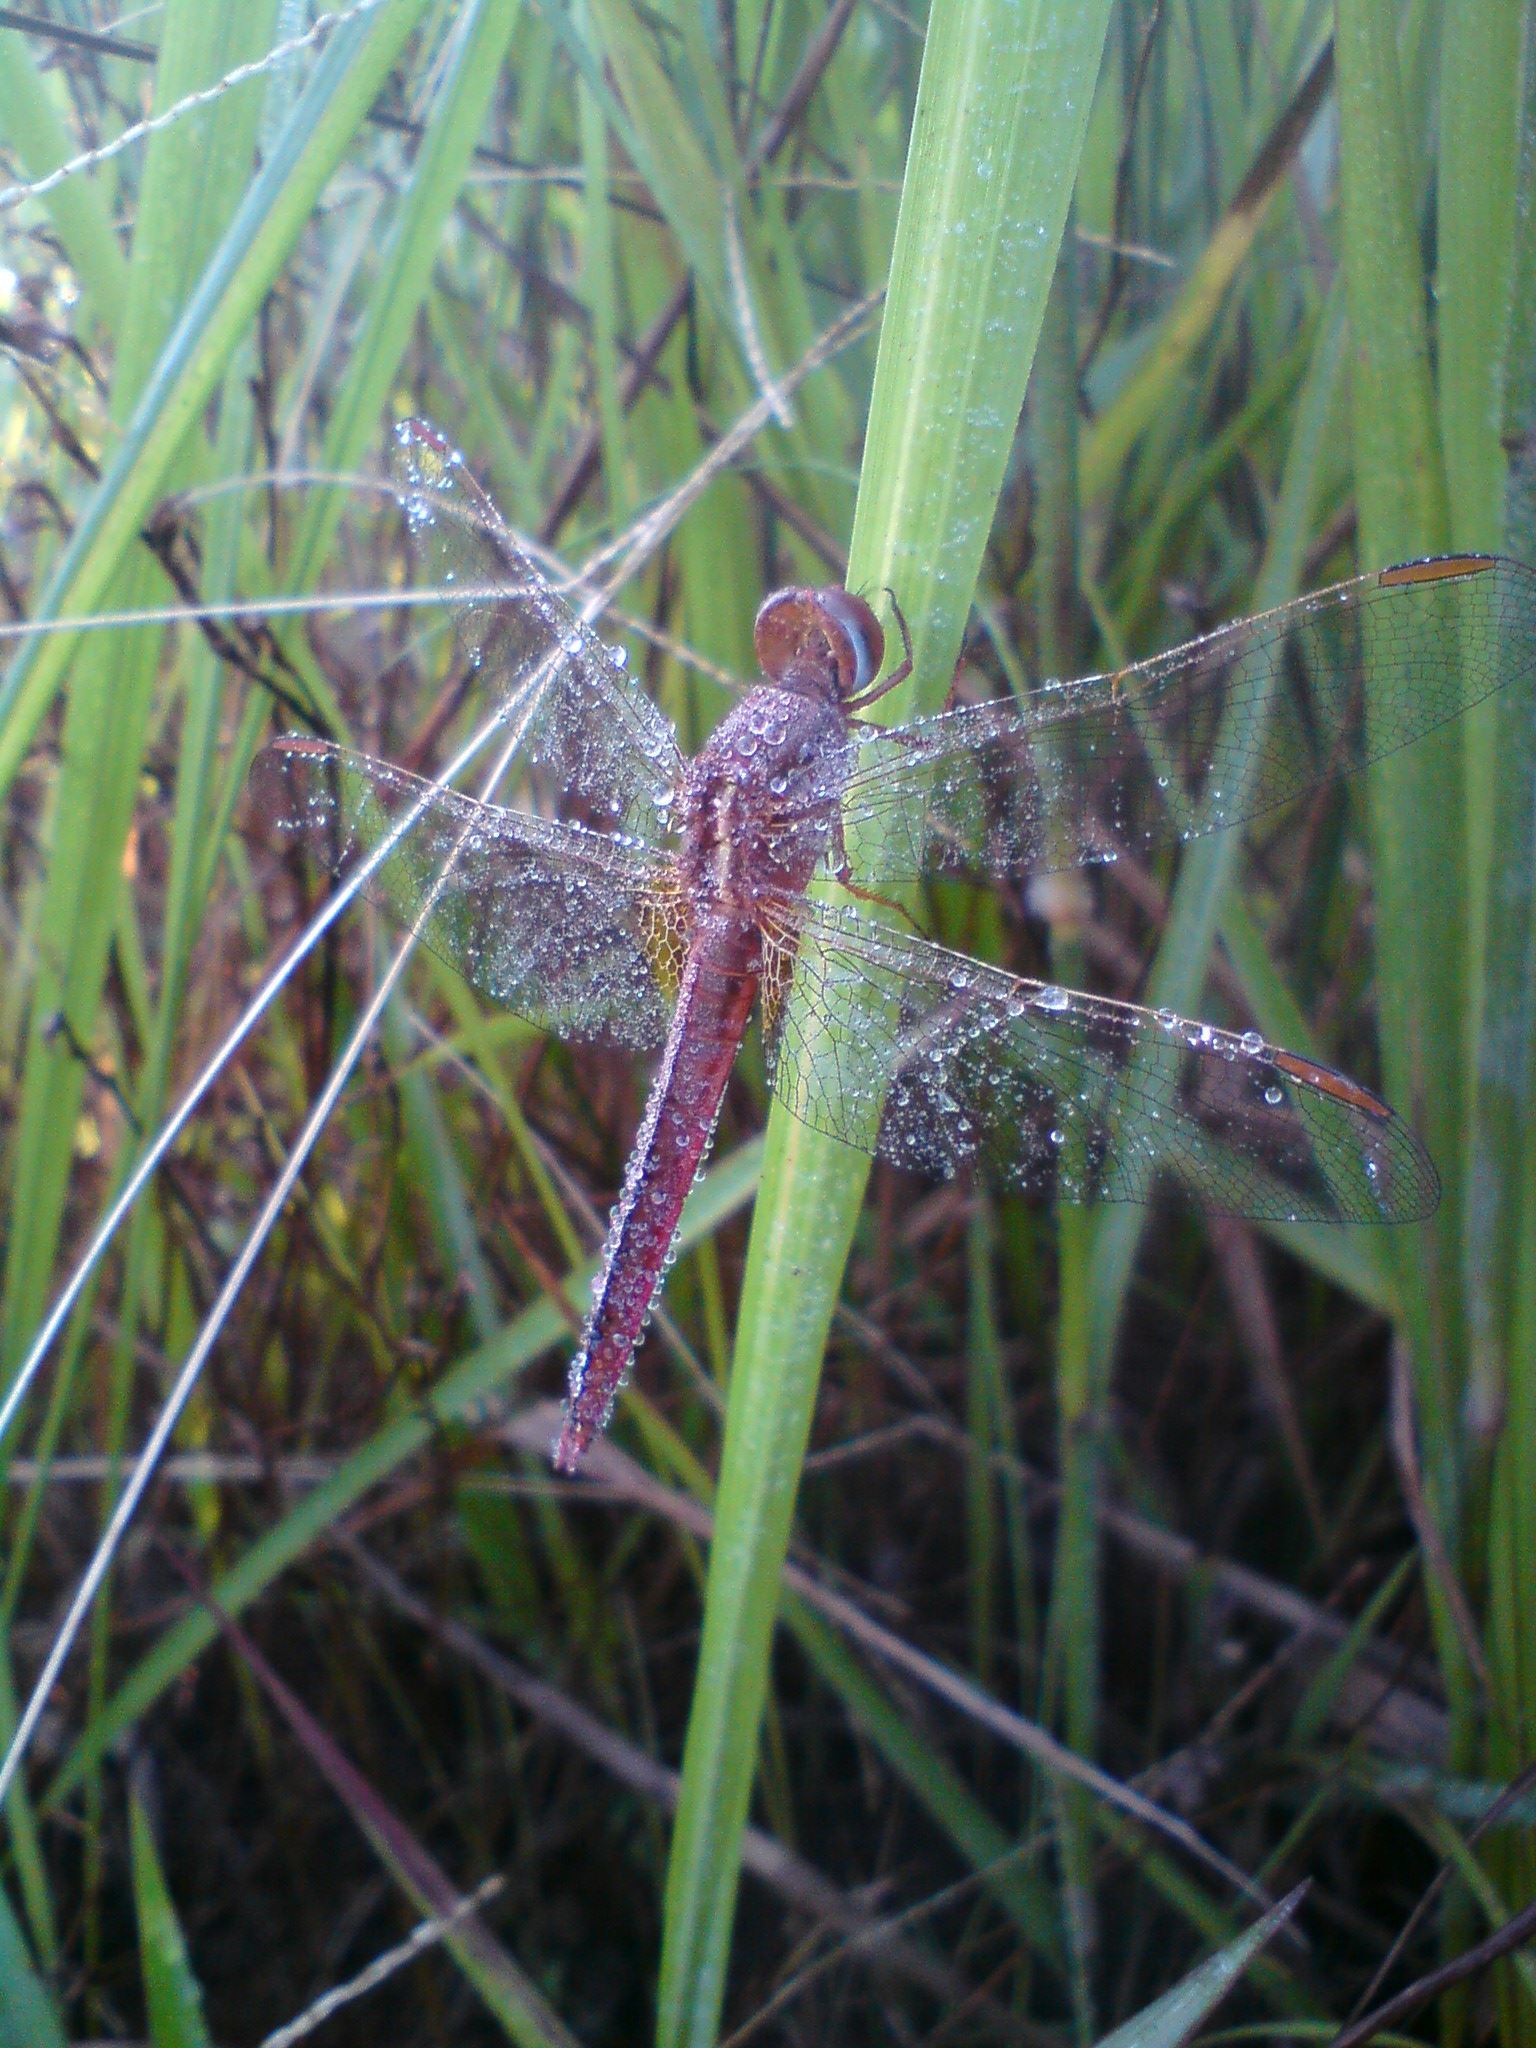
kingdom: Animalia
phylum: Arthropoda
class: Insecta
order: Odonata
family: Libellulidae
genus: Crocothemis
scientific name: Crocothemis servilia
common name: Scarlet skimmer
